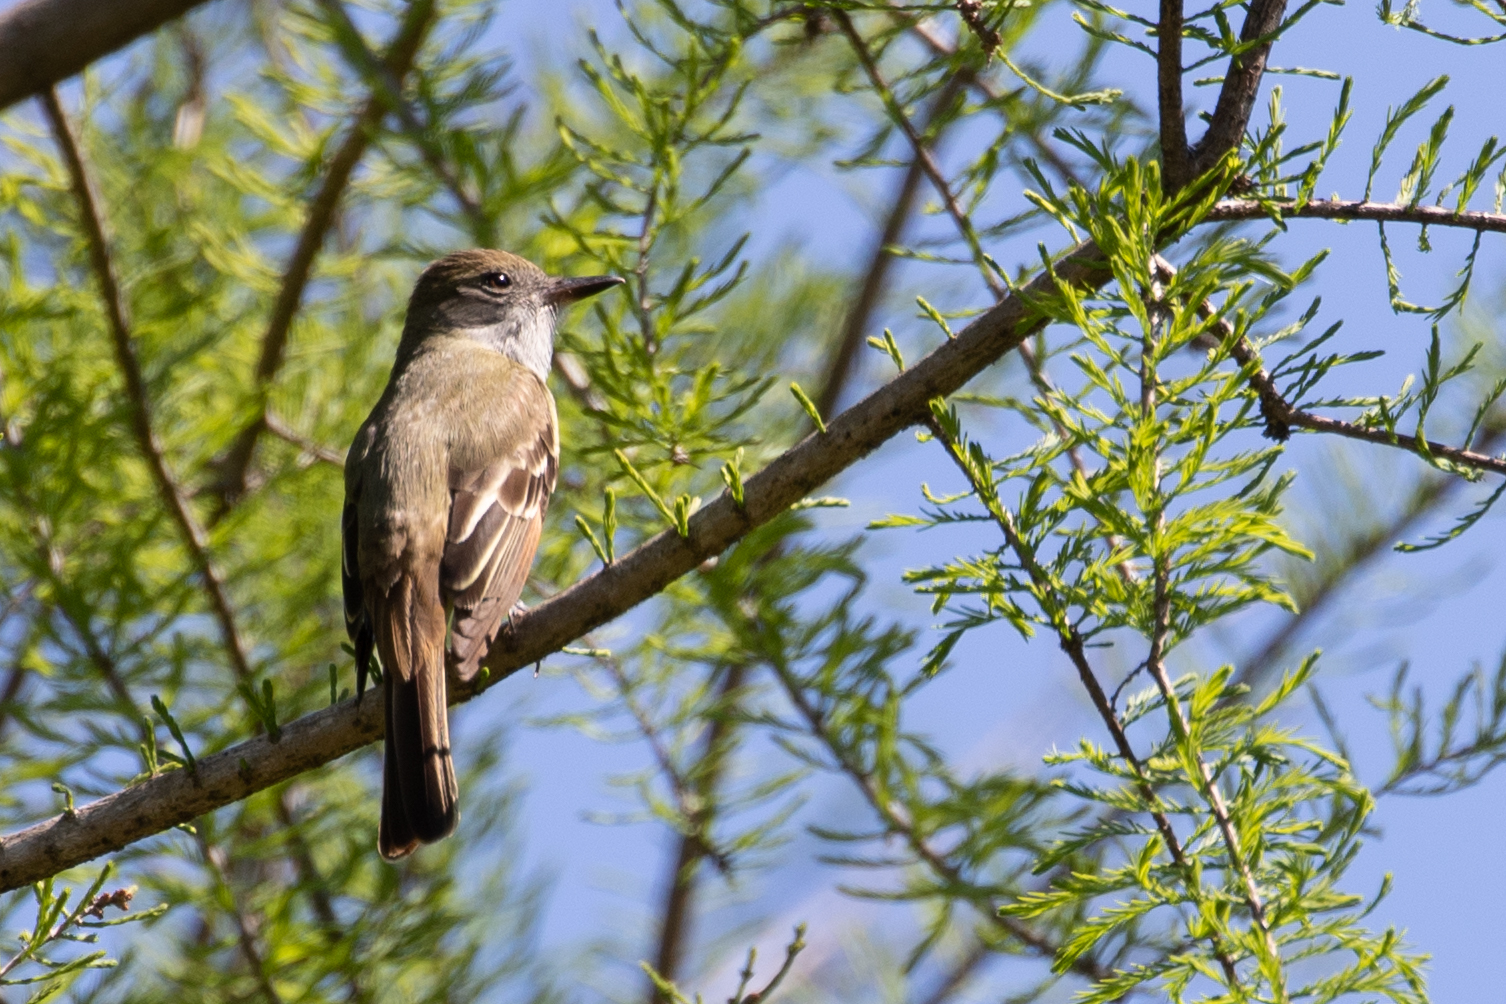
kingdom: Animalia
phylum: Chordata
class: Aves
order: Passeriformes
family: Tyrannidae
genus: Myiarchus
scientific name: Myiarchus crinitus
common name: Great crested flycatcher
